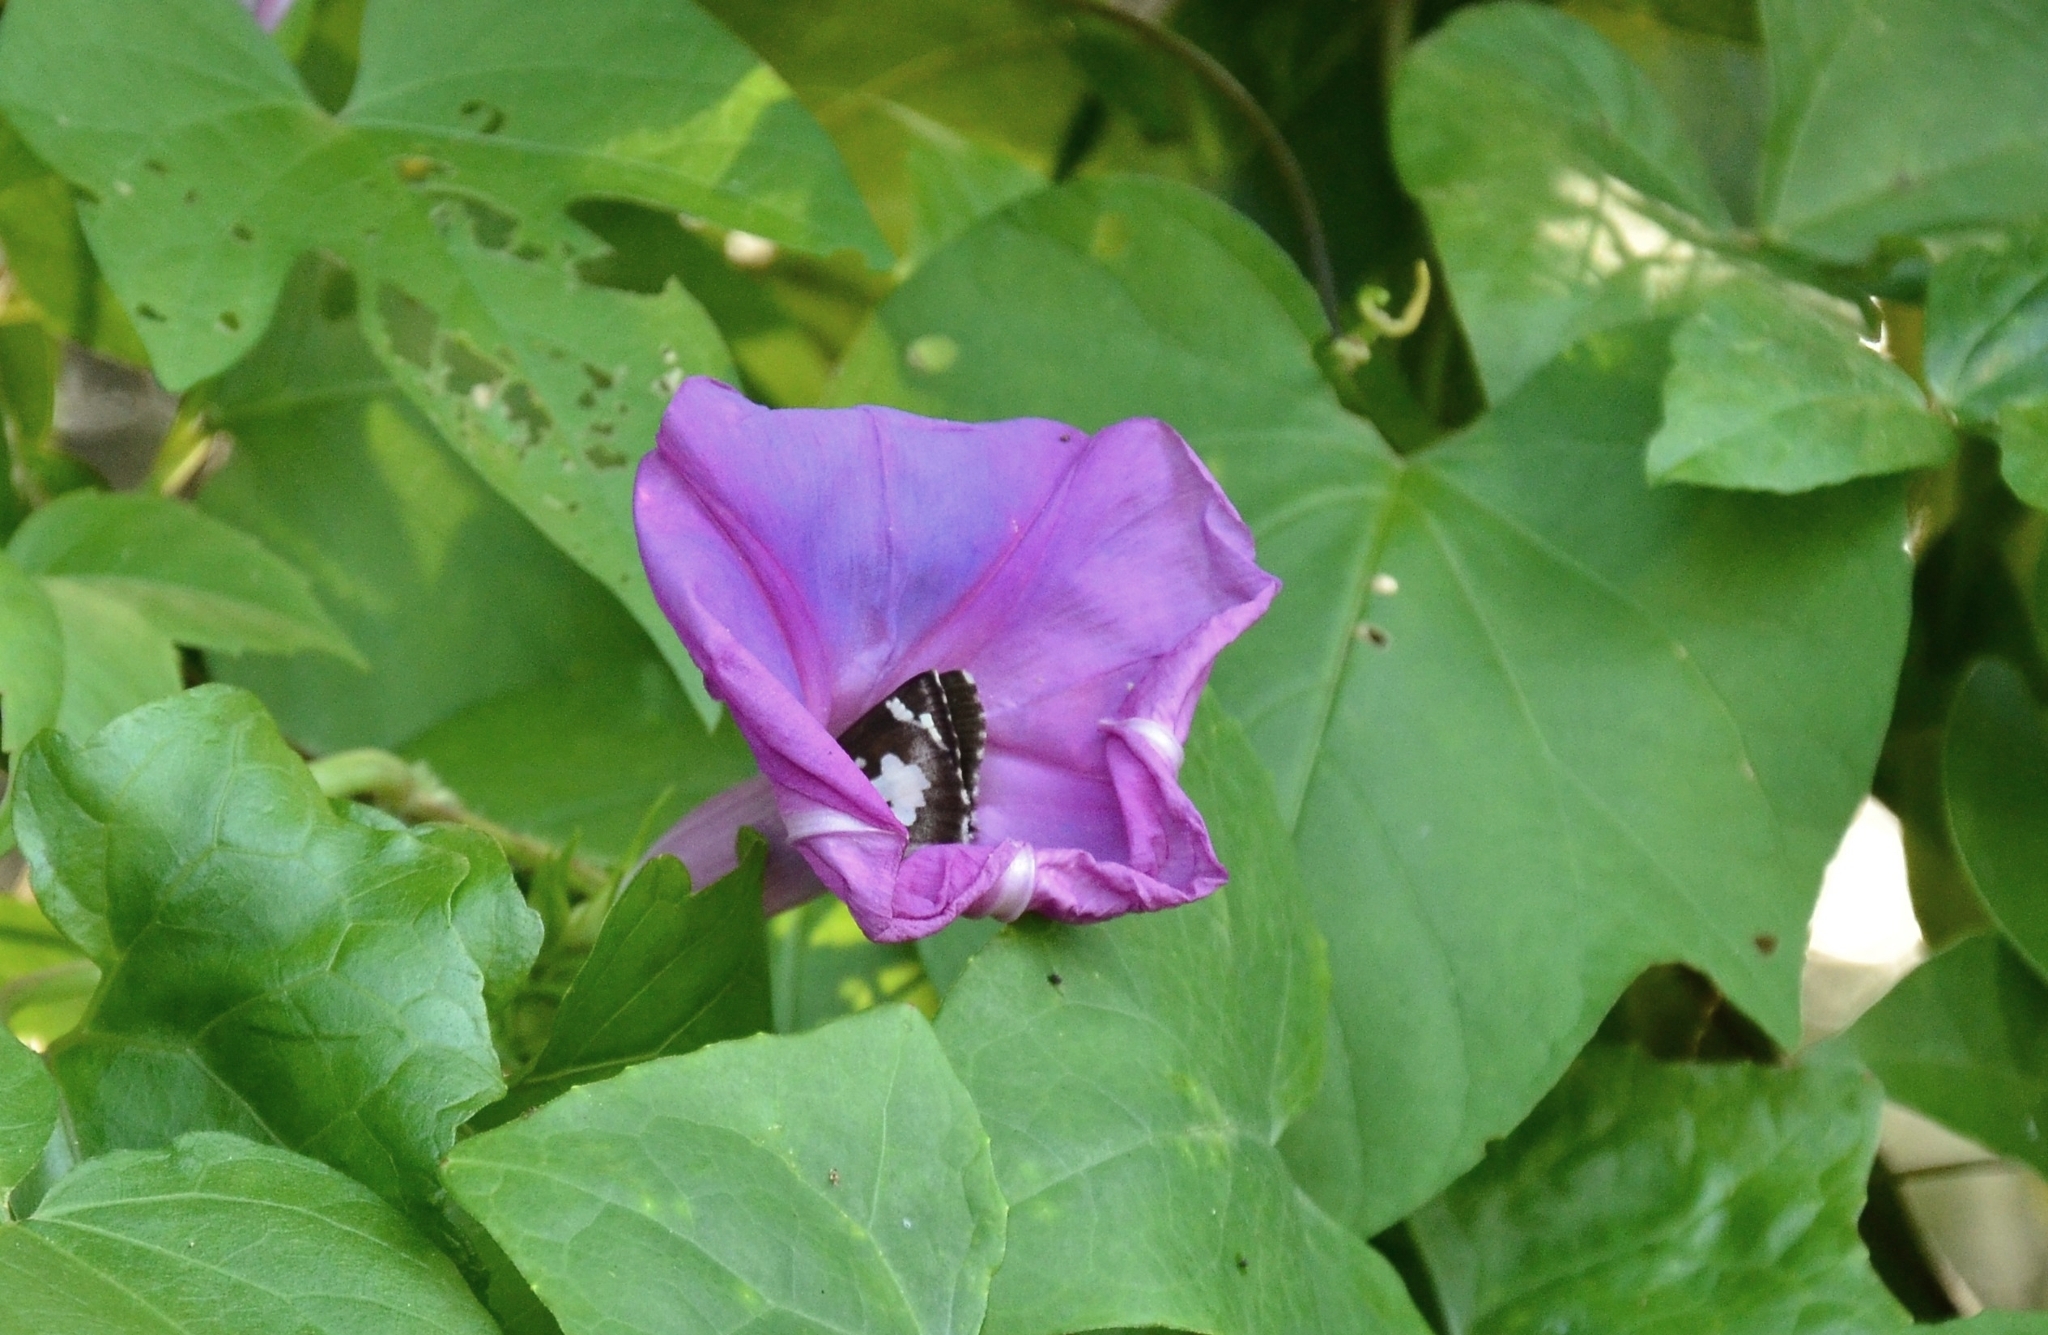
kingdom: Animalia
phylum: Arthropoda
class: Insecta
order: Lepidoptera
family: Hesperiidae
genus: Udaspes
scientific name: Udaspes folus
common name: Grass demon
